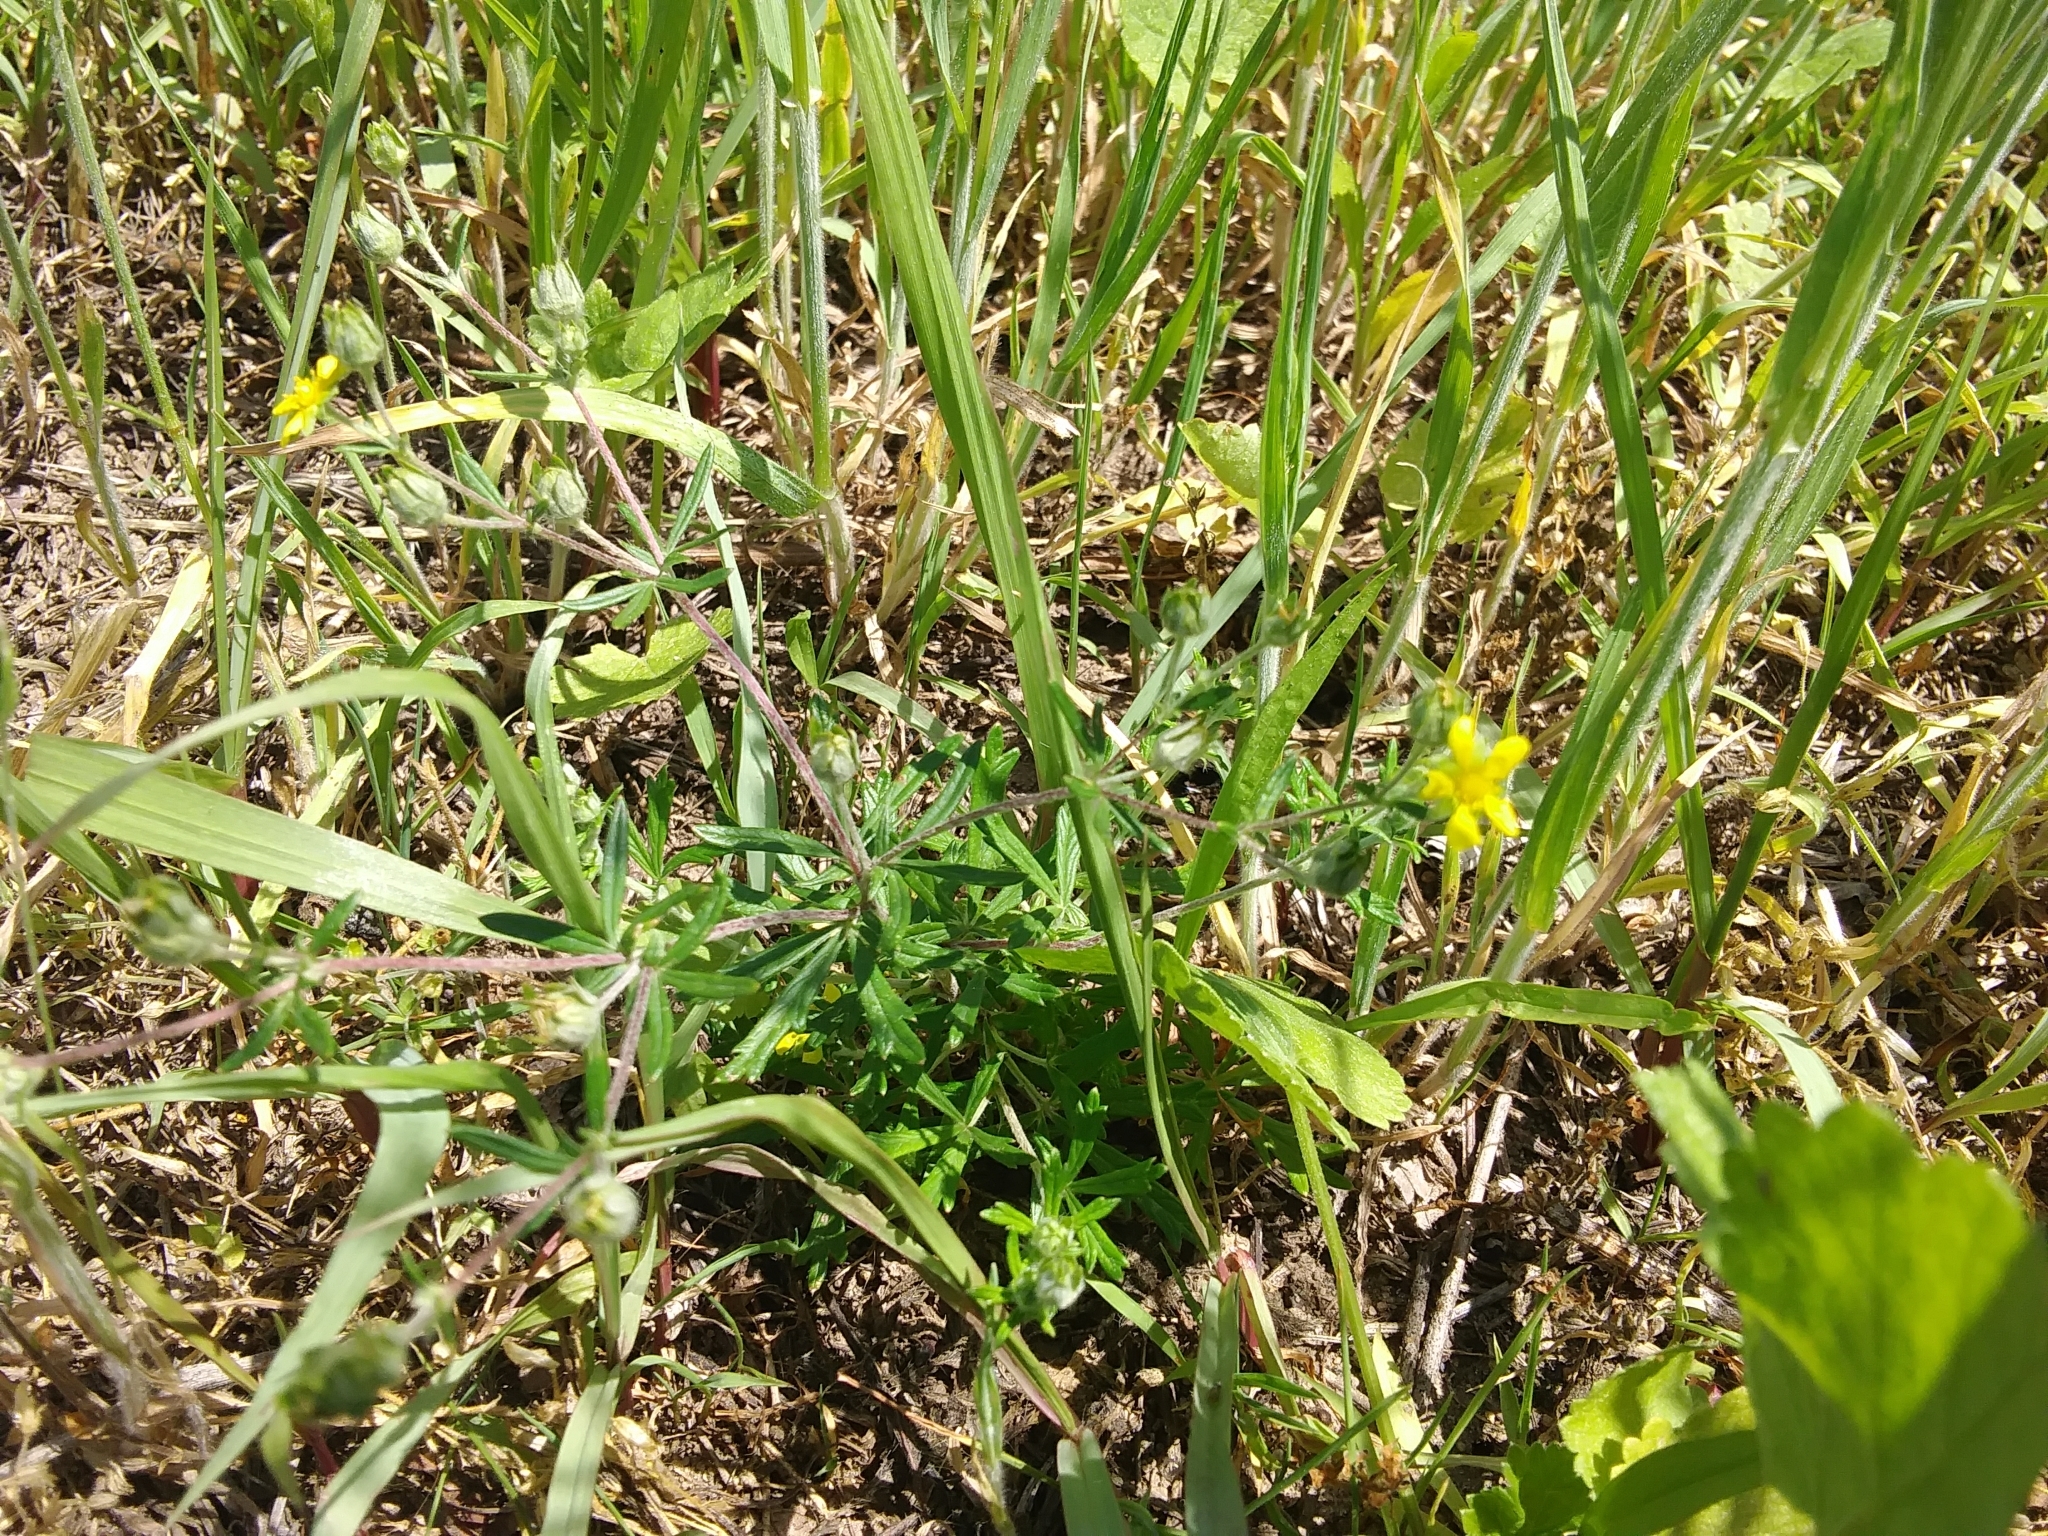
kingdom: Plantae
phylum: Tracheophyta
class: Magnoliopsida
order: Rosales
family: Rosaceae
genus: Potentilla
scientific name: Potentilla argentea
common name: Hoary cinquefoil
